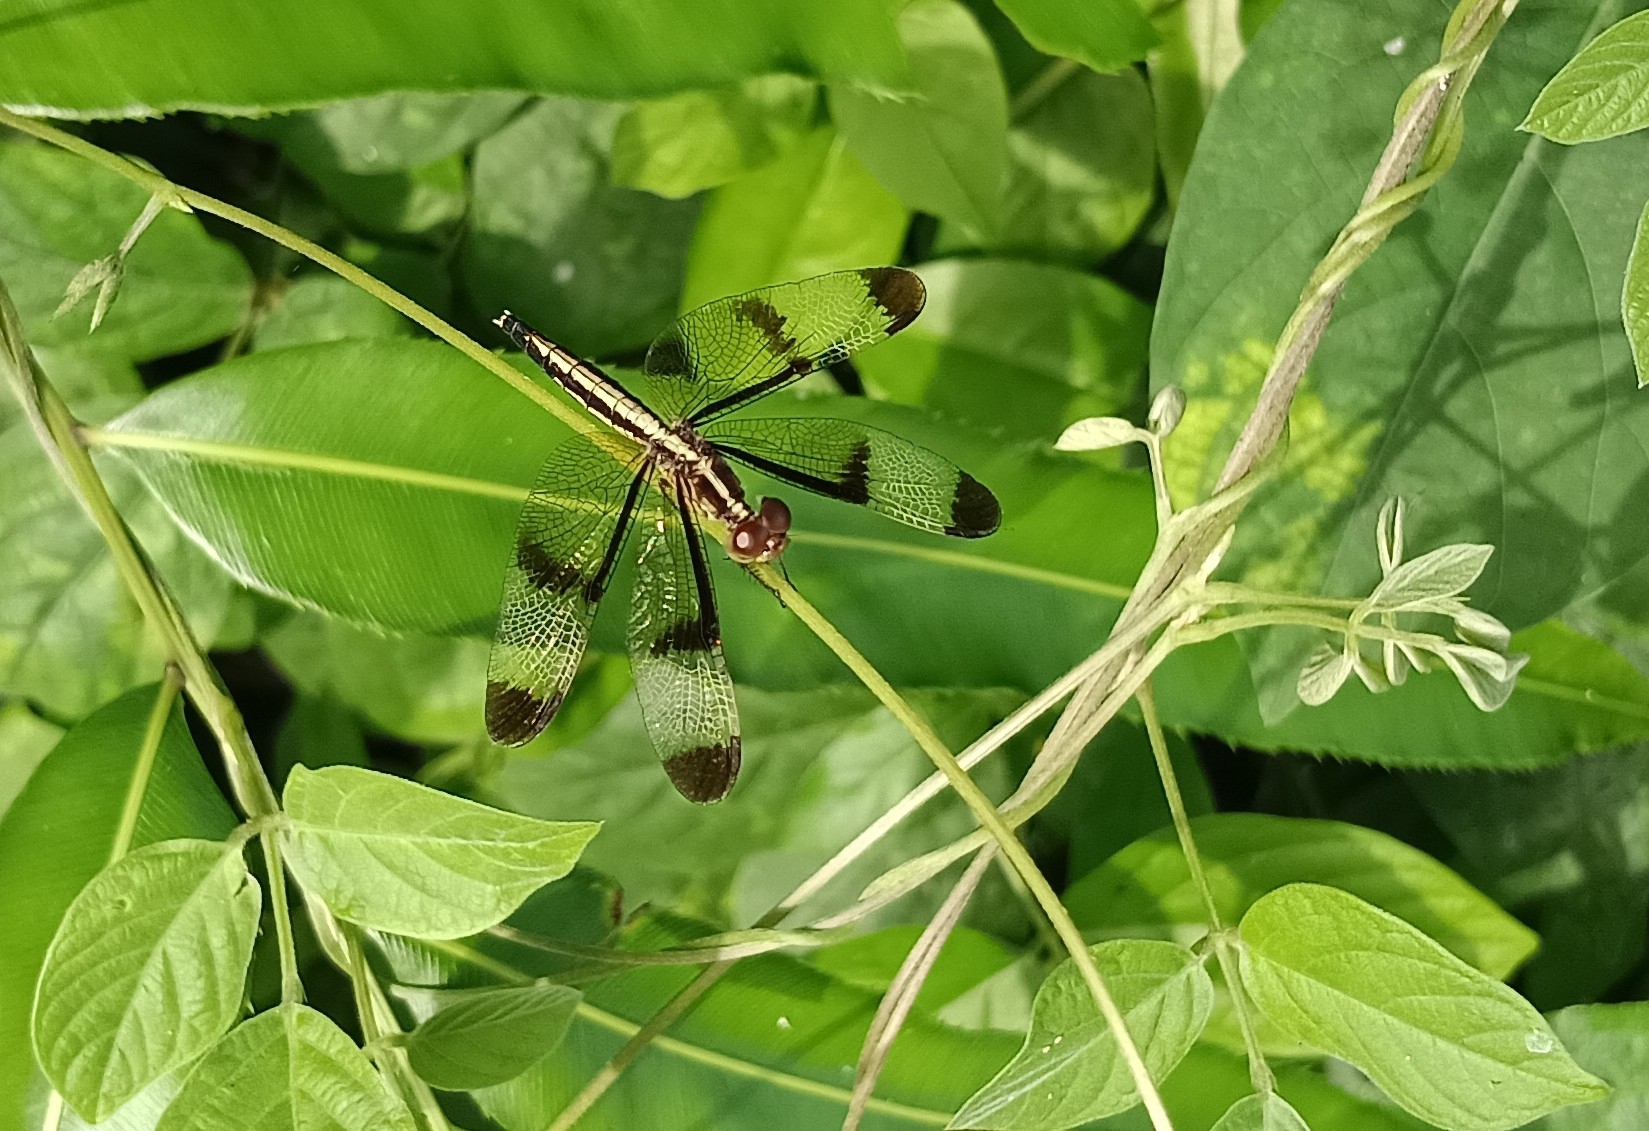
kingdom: Animalia
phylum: Arthropoda
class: Insecta
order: Odonata
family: Libellulidae
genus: Neurothemis
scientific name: Neurothemis tullia
